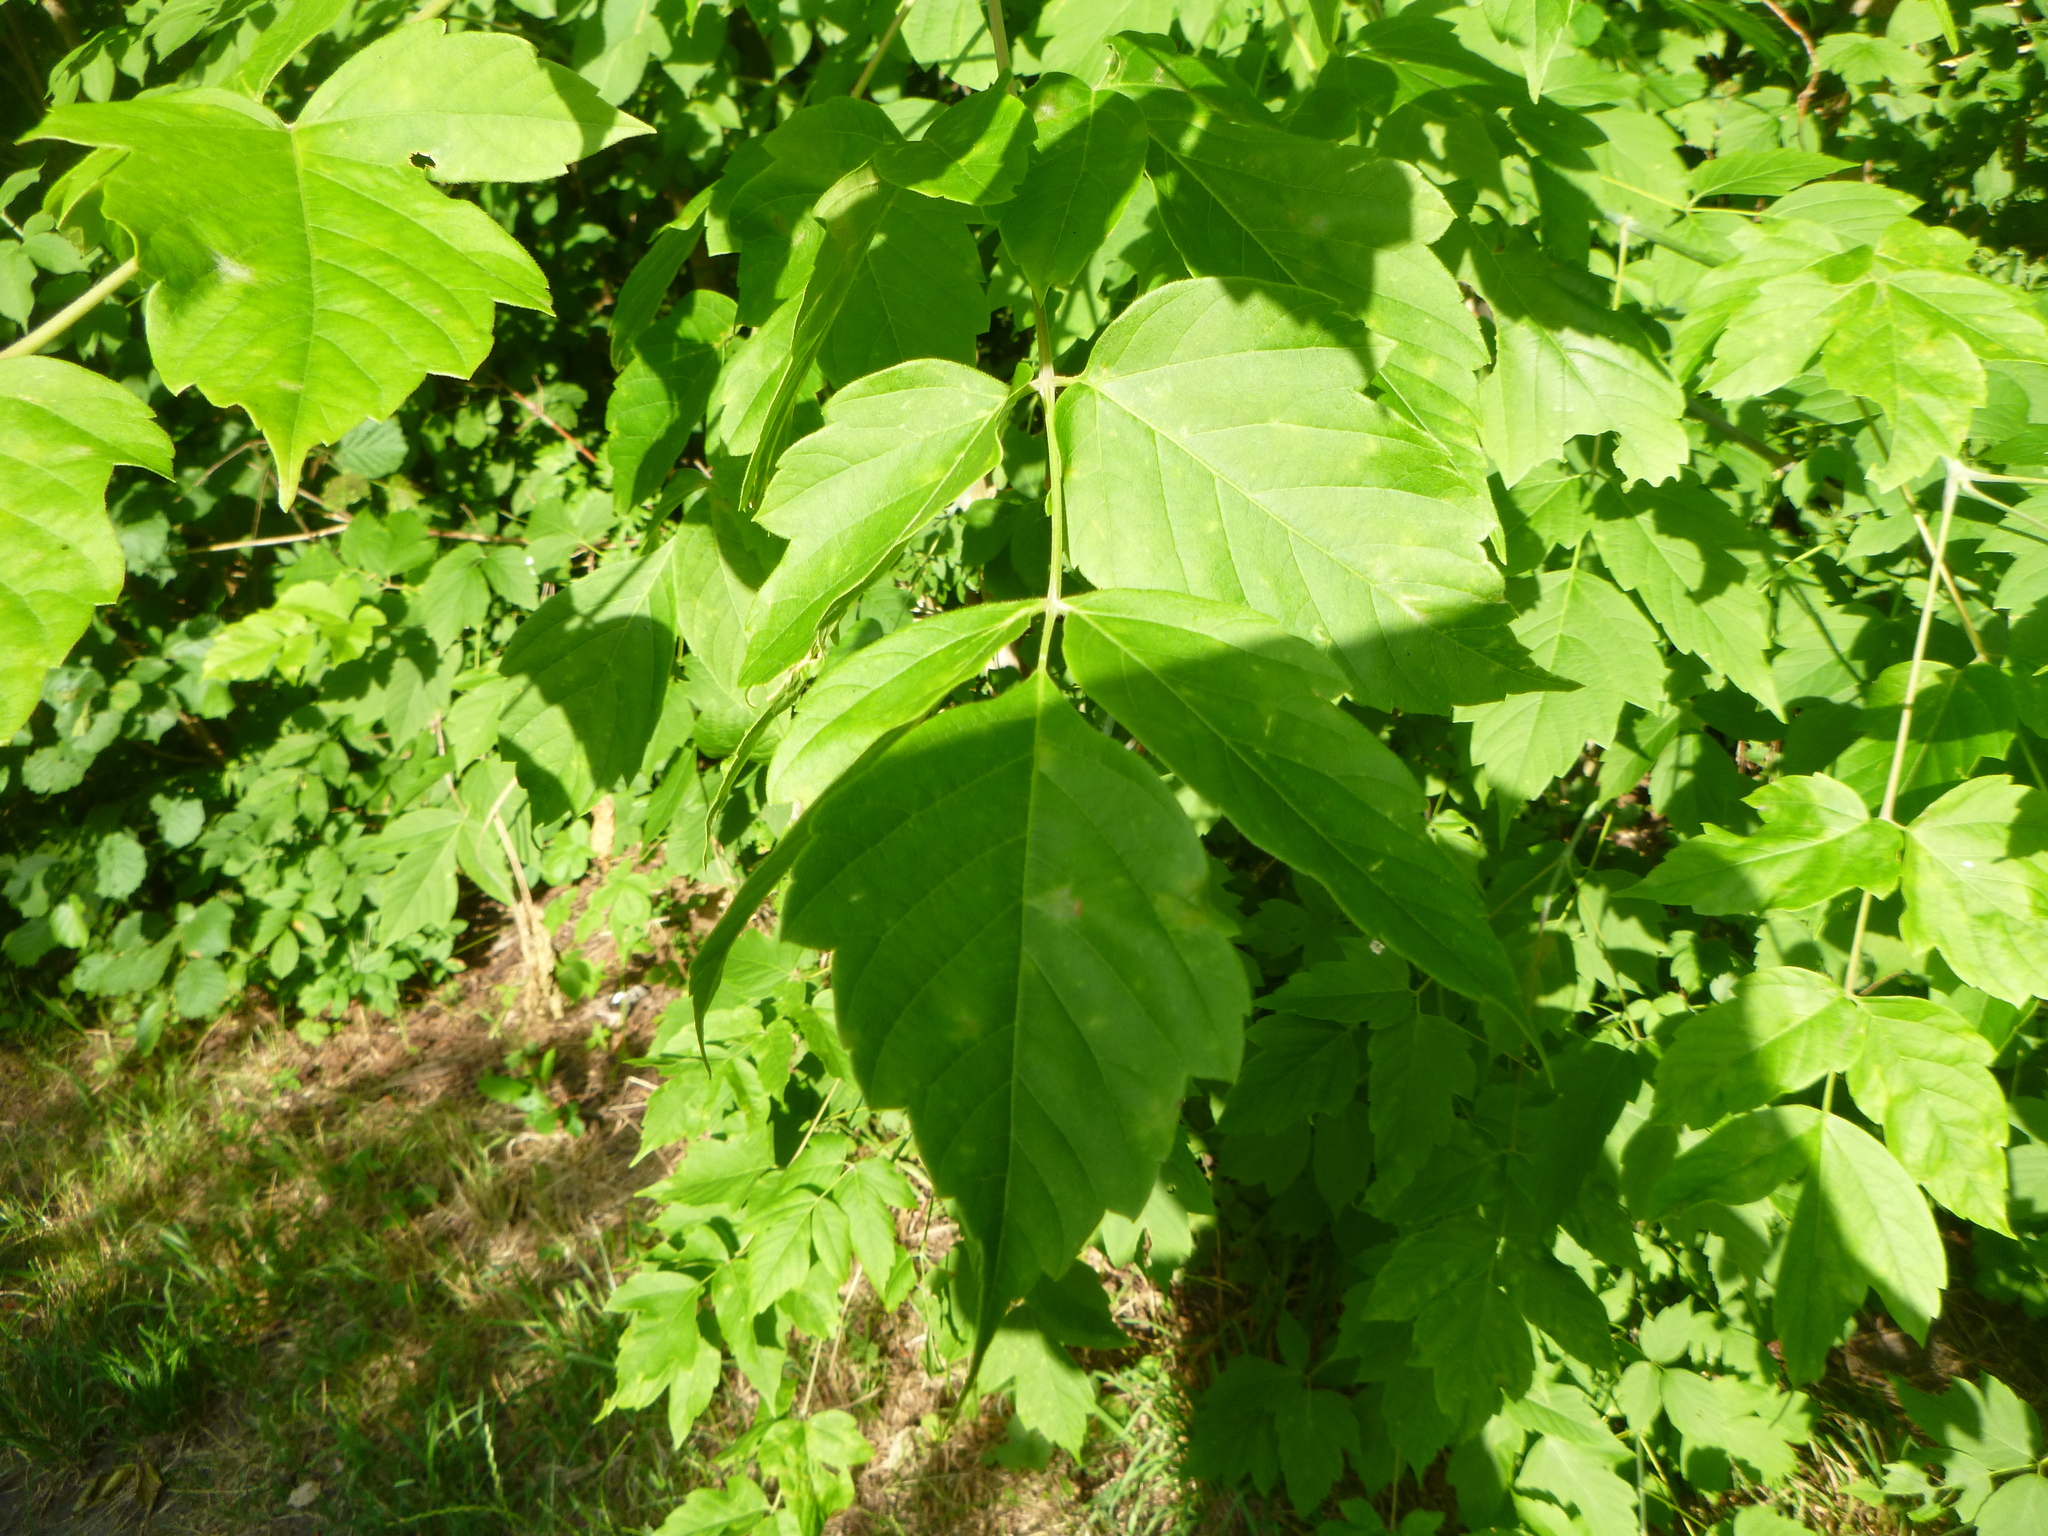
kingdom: Plantae
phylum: Tracheophyta
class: Magnoliopsida
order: Sapindales
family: Sapindaceae
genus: Acer
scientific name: Acer negundo
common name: Ashleaf maple
